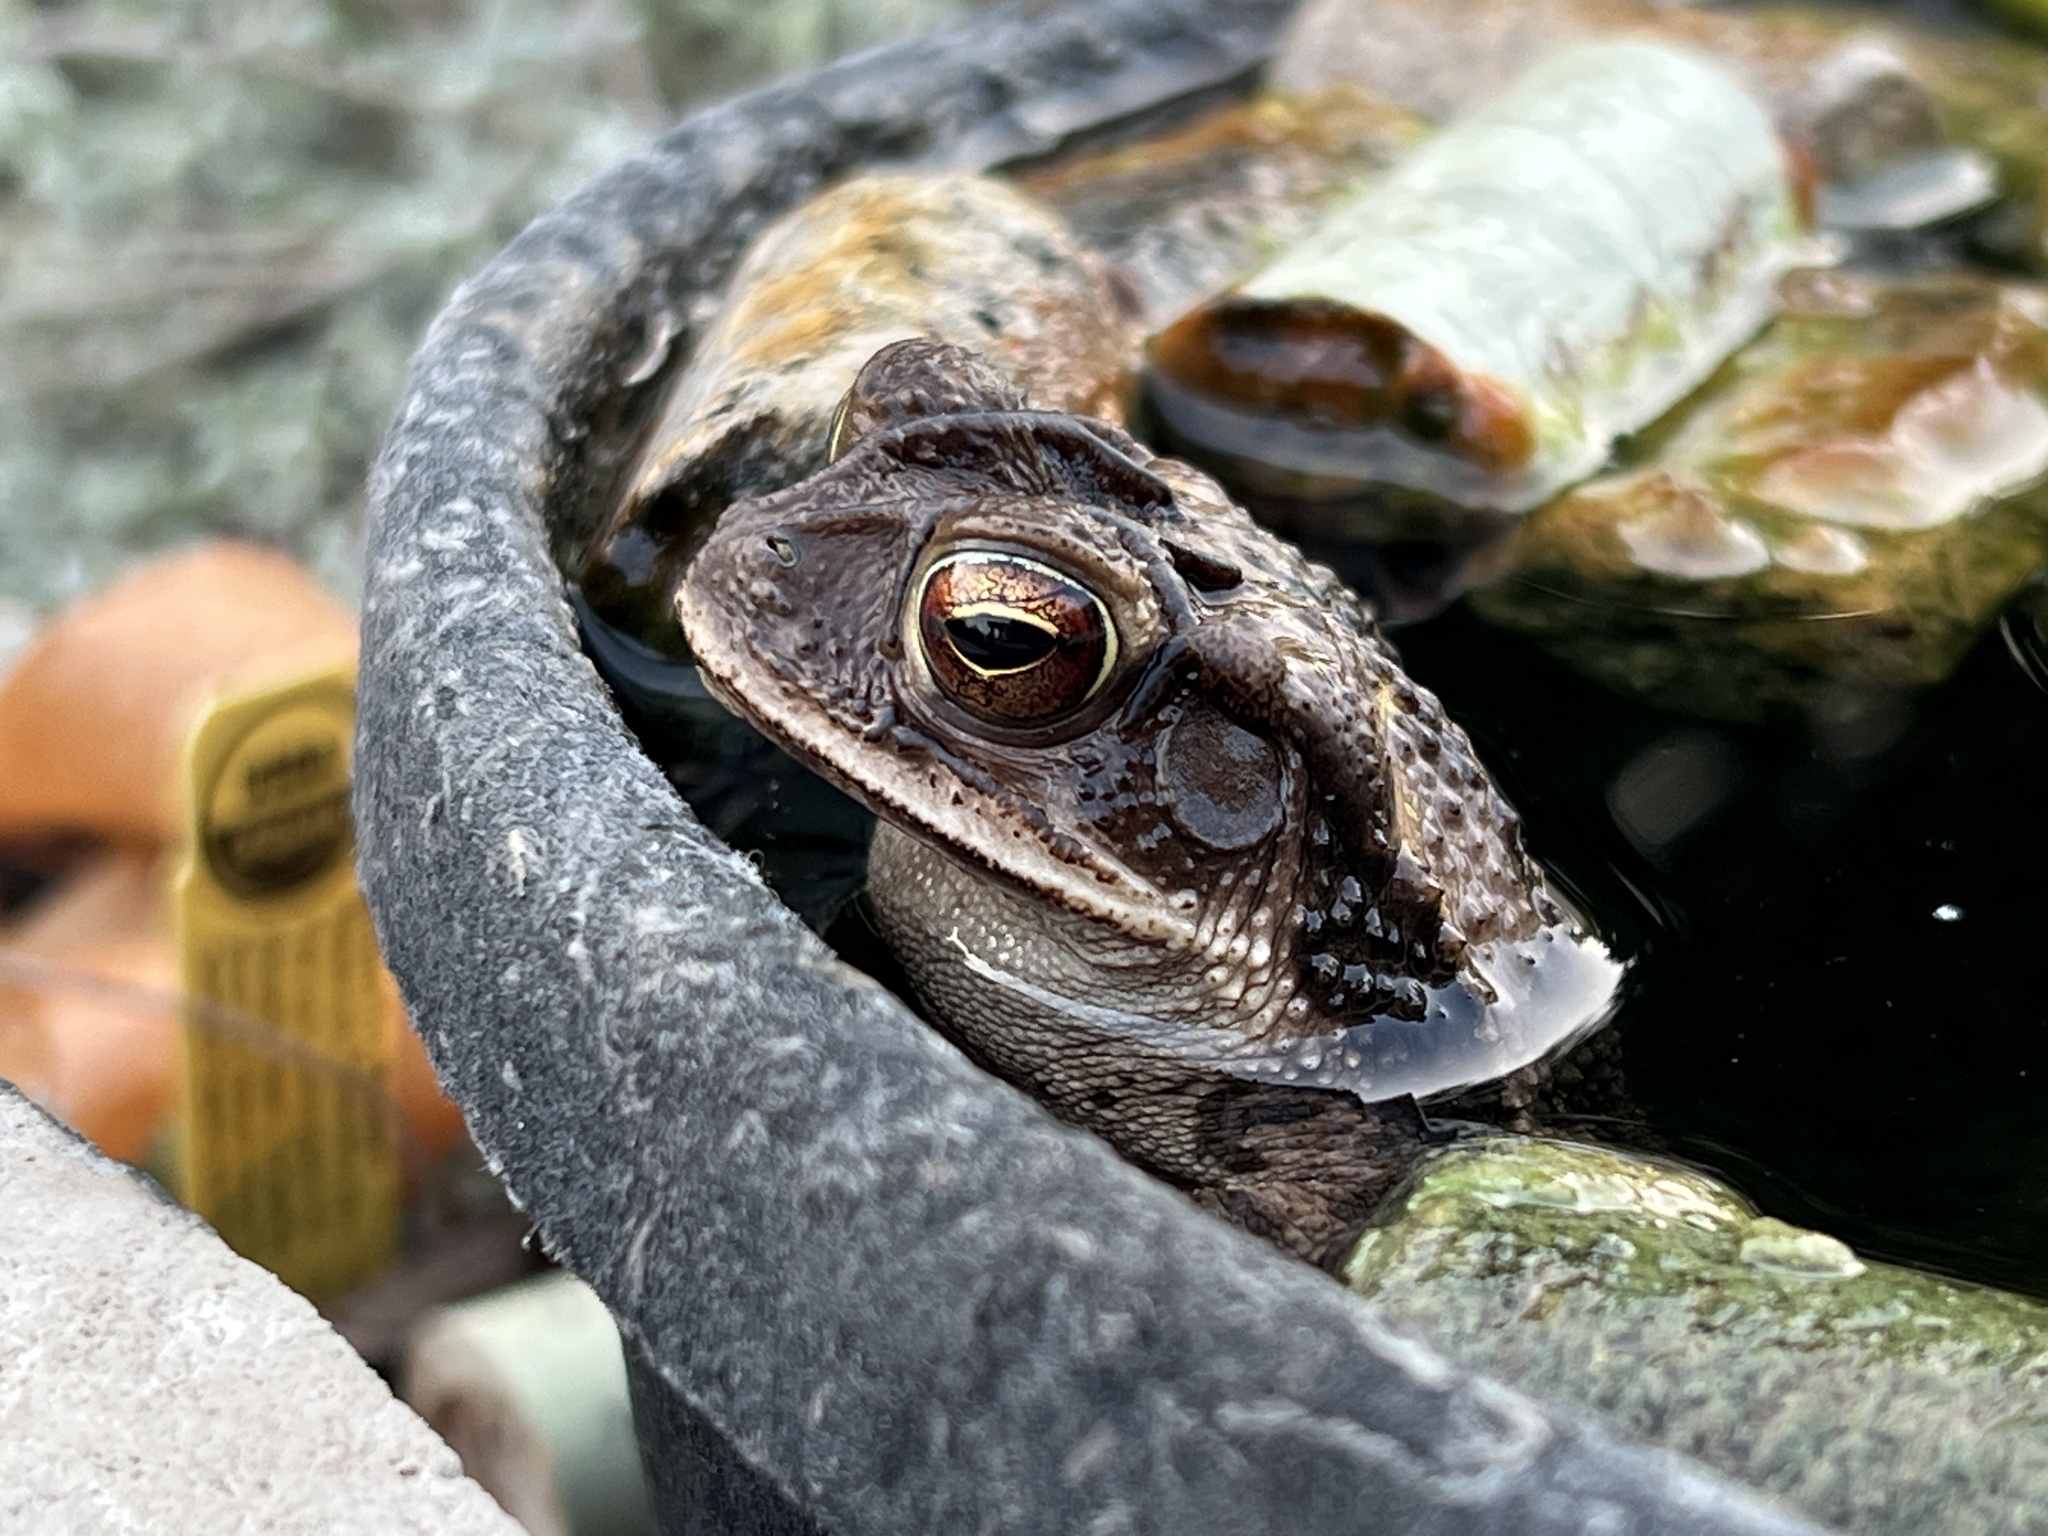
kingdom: Animalia
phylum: Chordata
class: Amphibia
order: Anura
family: Bufonidae
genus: Incilius
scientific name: Incilius nebulifer
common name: Gulf coast toad
